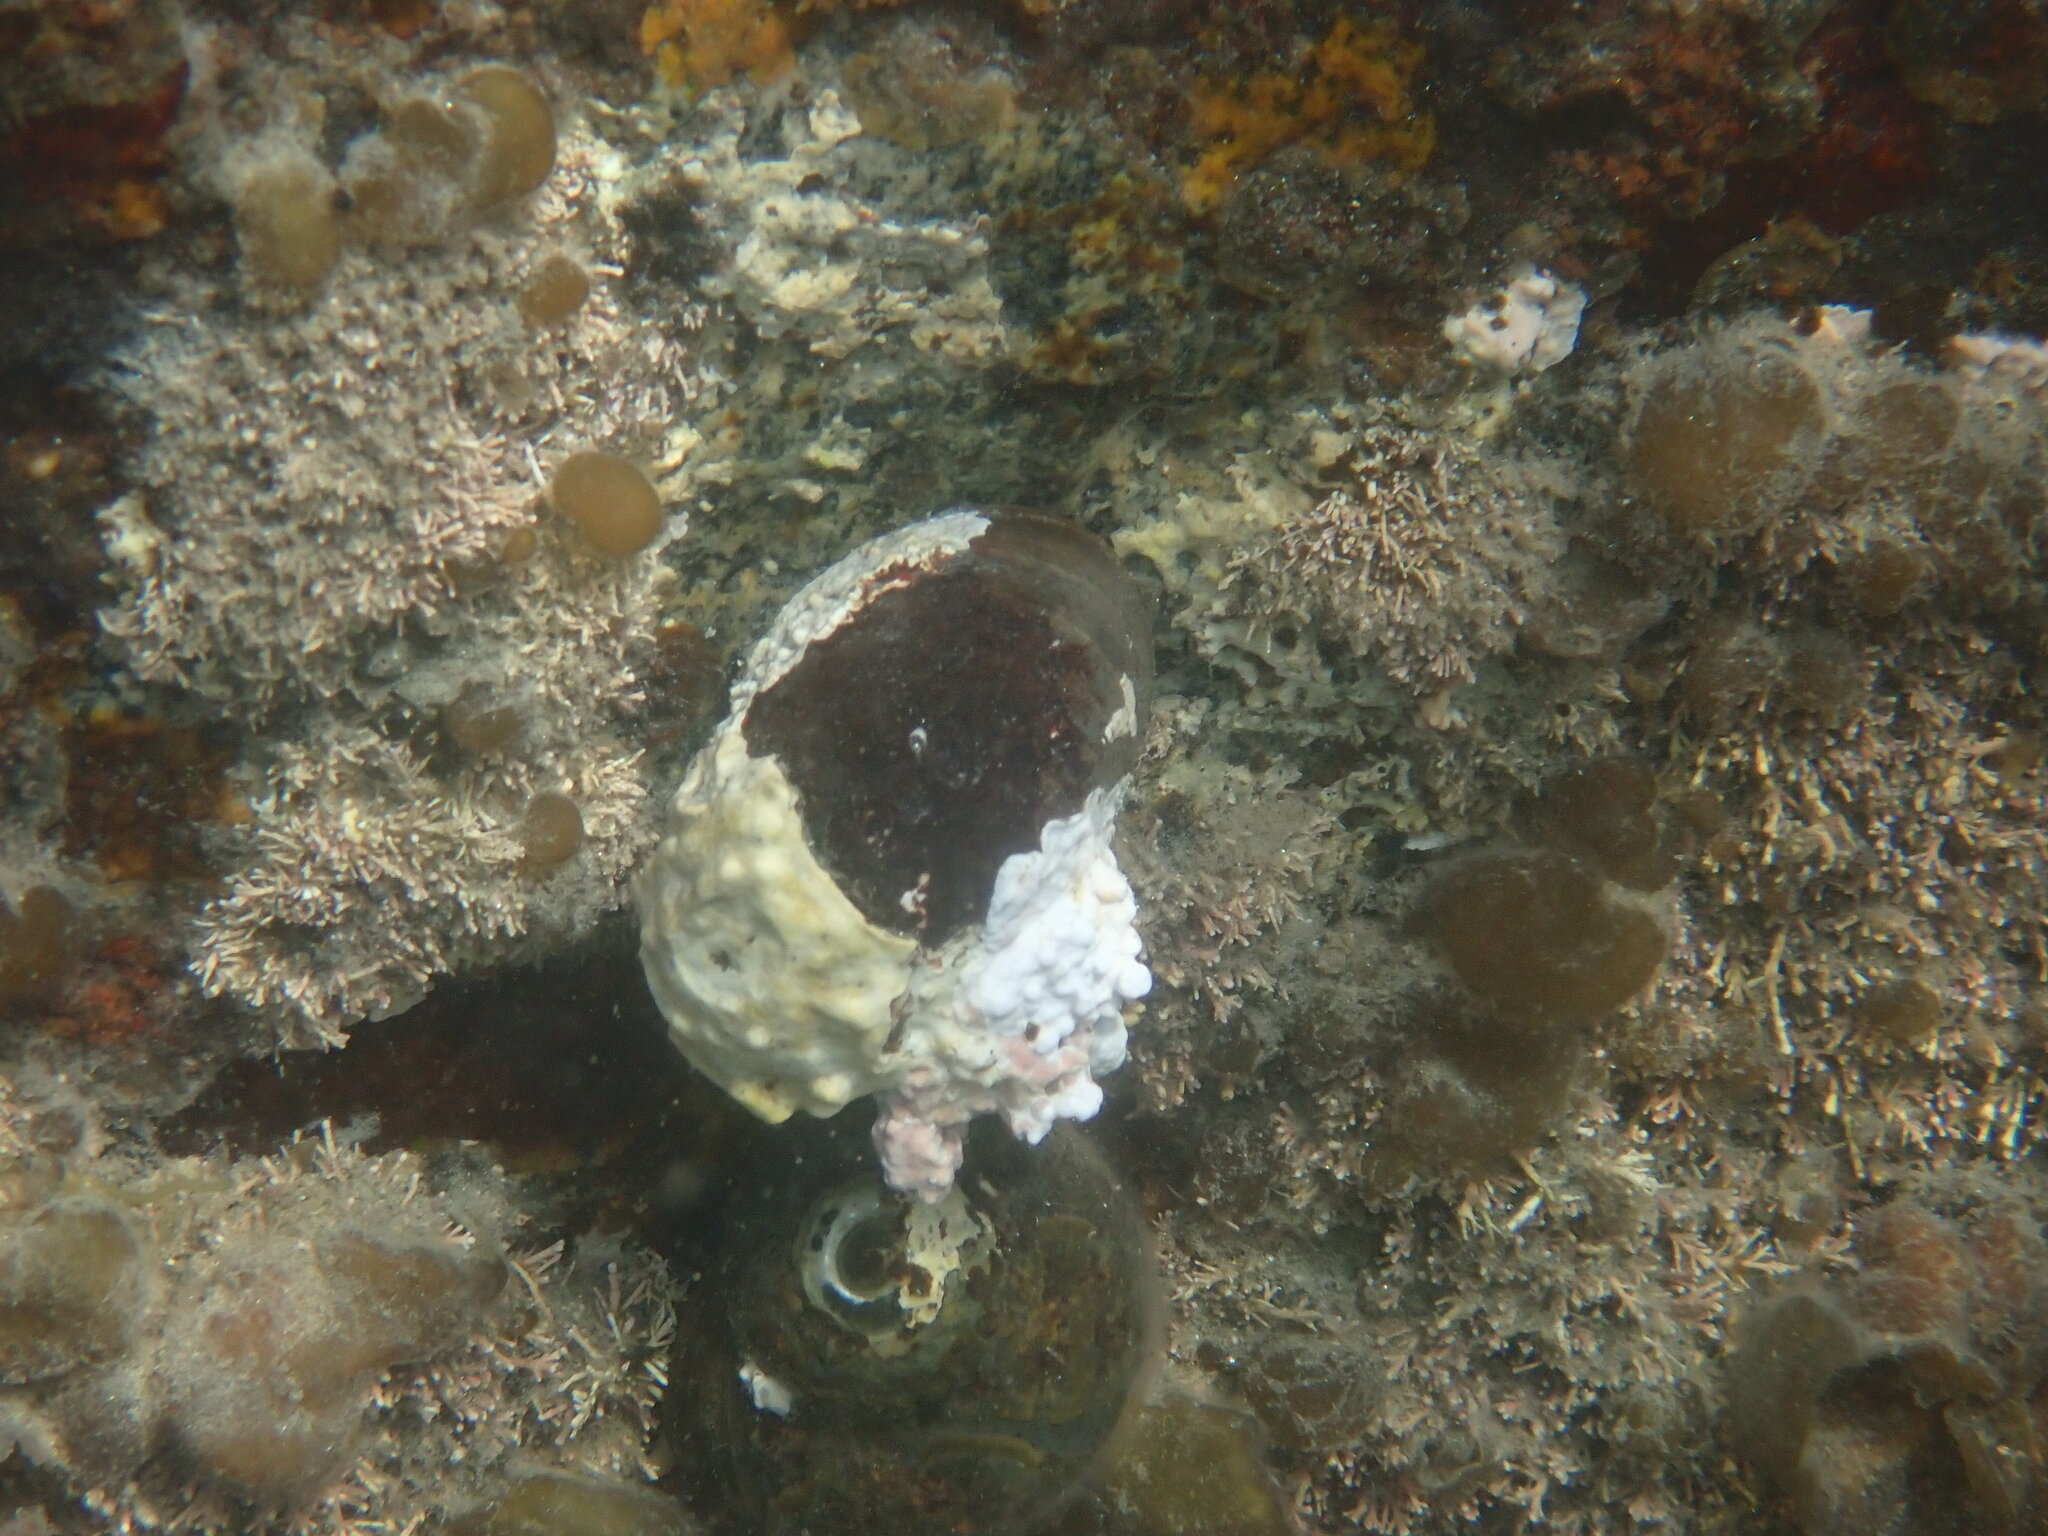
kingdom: Animalia
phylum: Mollusca
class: Gastropoda
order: Trochida
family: Turbinidae
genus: Lunella
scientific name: Lunella smaragda
